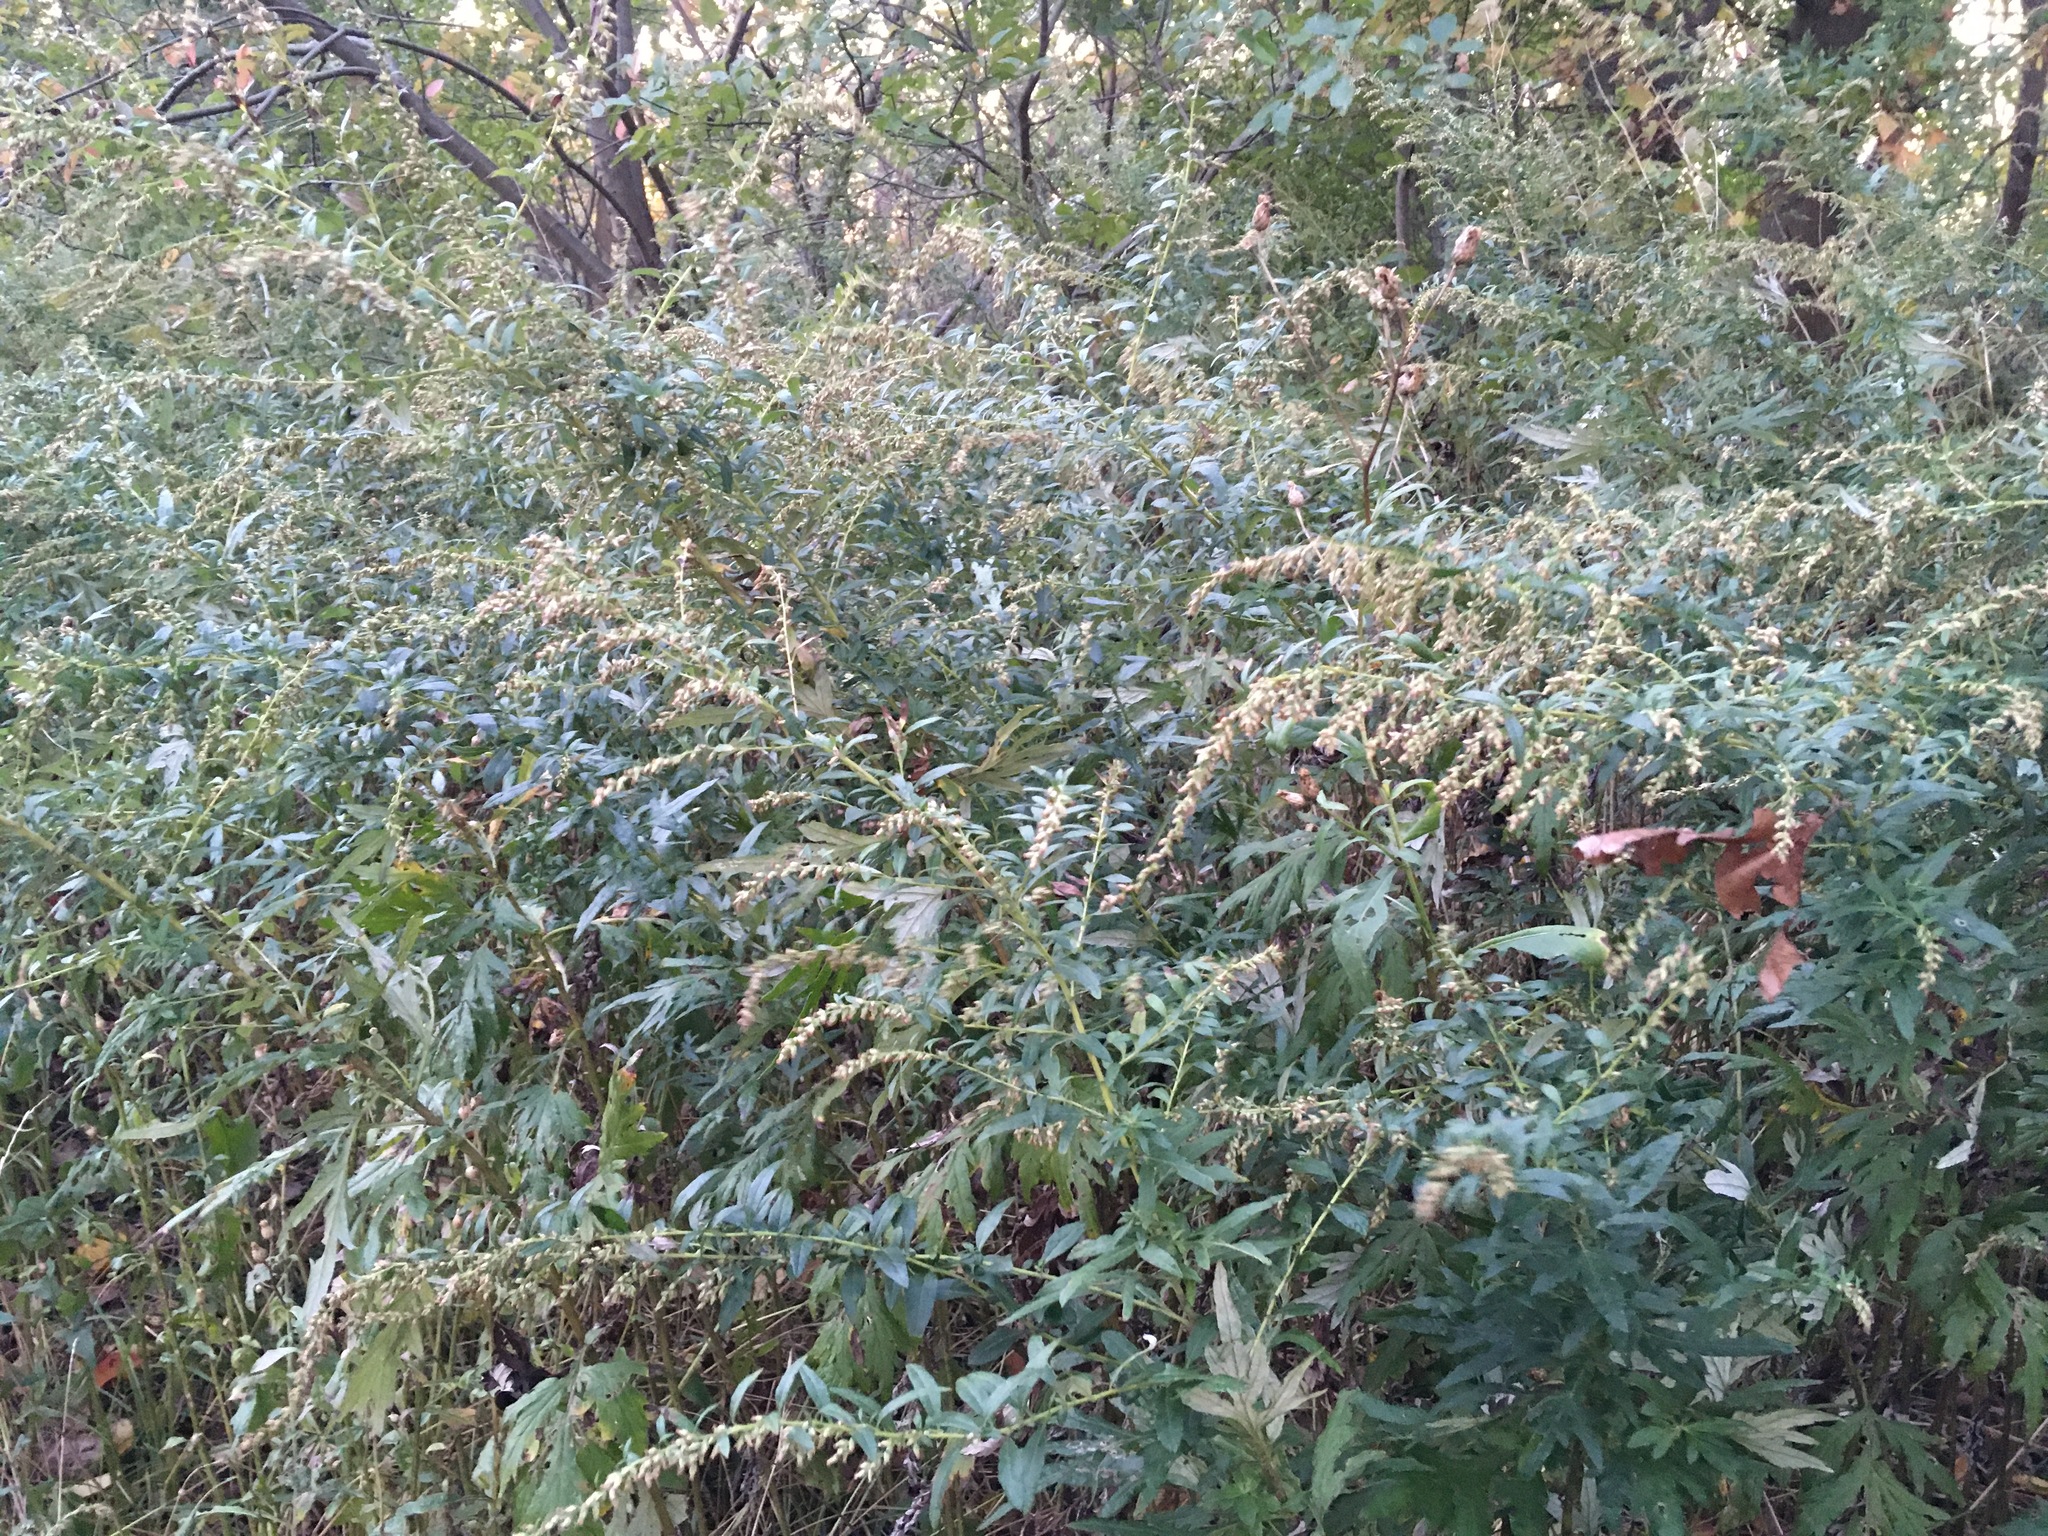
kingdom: Plantae
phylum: Tracheophyta
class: Magnoliopsida
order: Asterales
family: Asteraceae
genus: Artemisia
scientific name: Artemisia vulgaris
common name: Mugwort
